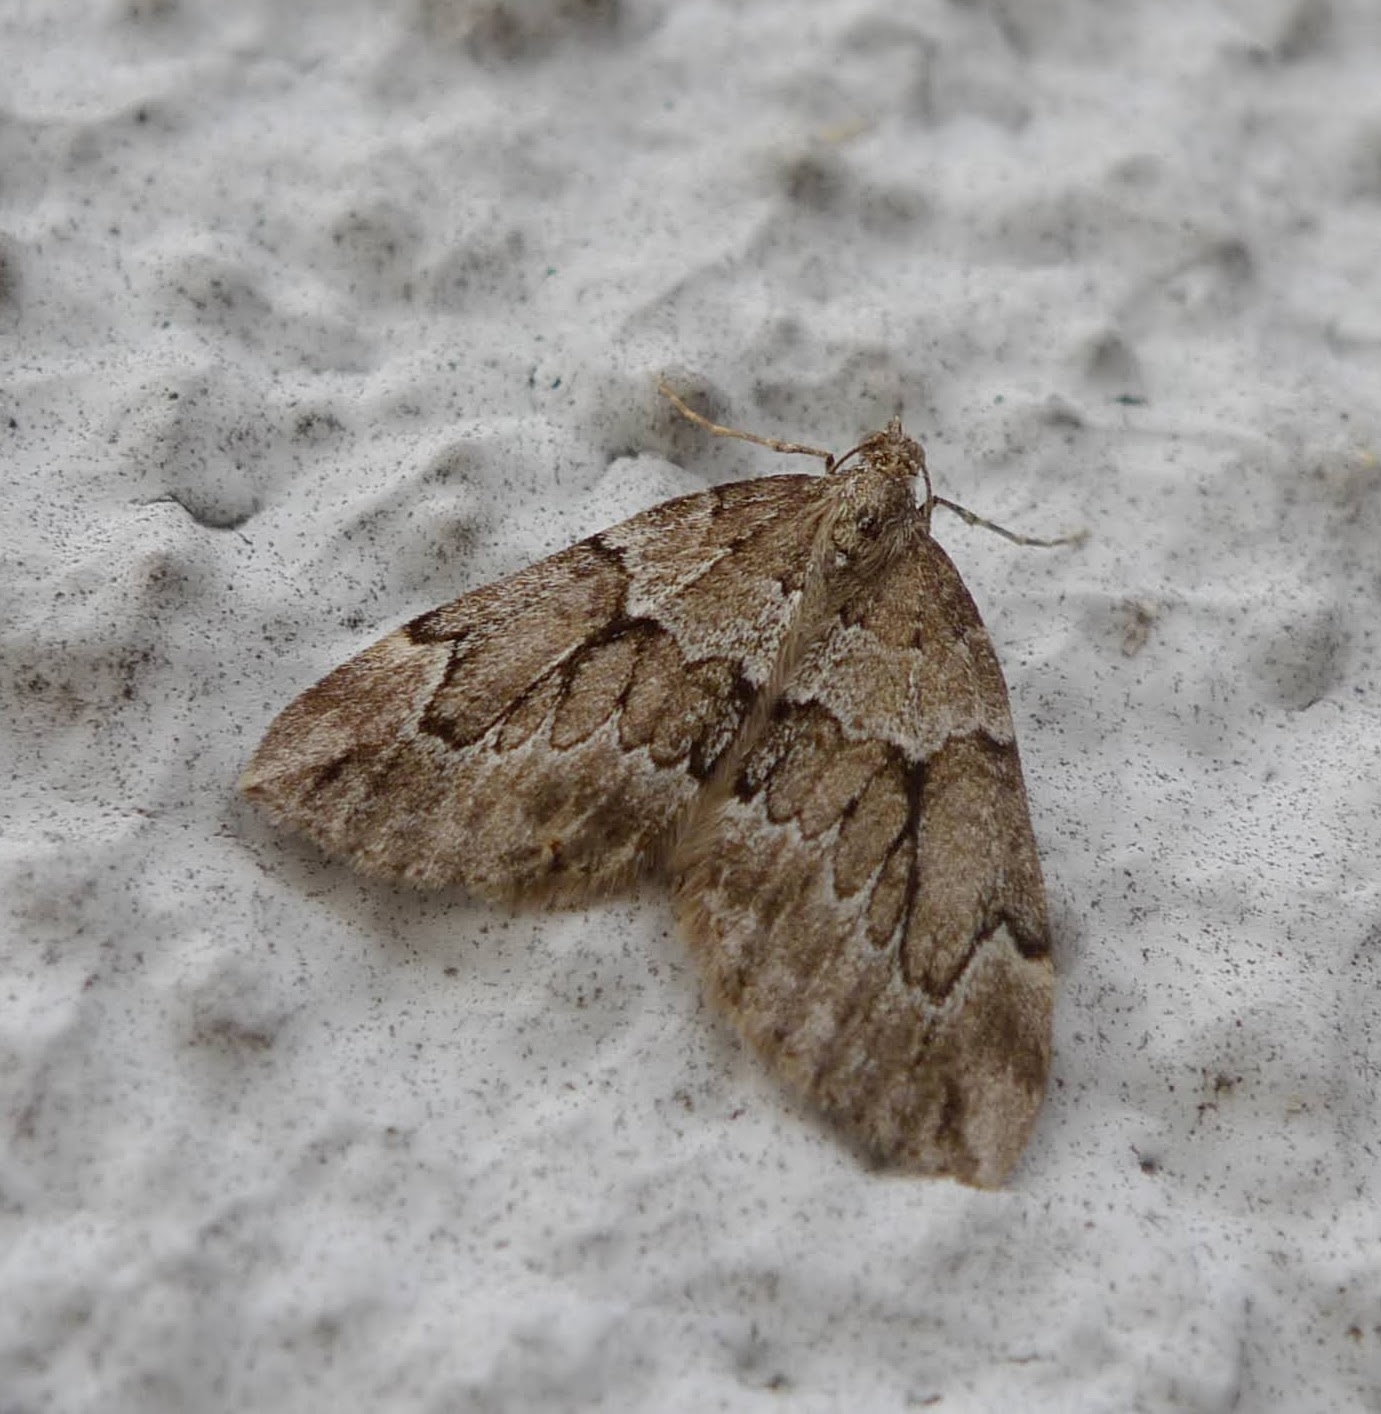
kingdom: Animalia
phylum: Arthropoda
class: Insecta
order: Lepidoptera
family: Geometridae
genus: Thera
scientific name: Thera juniperata
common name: Juniper carpet
